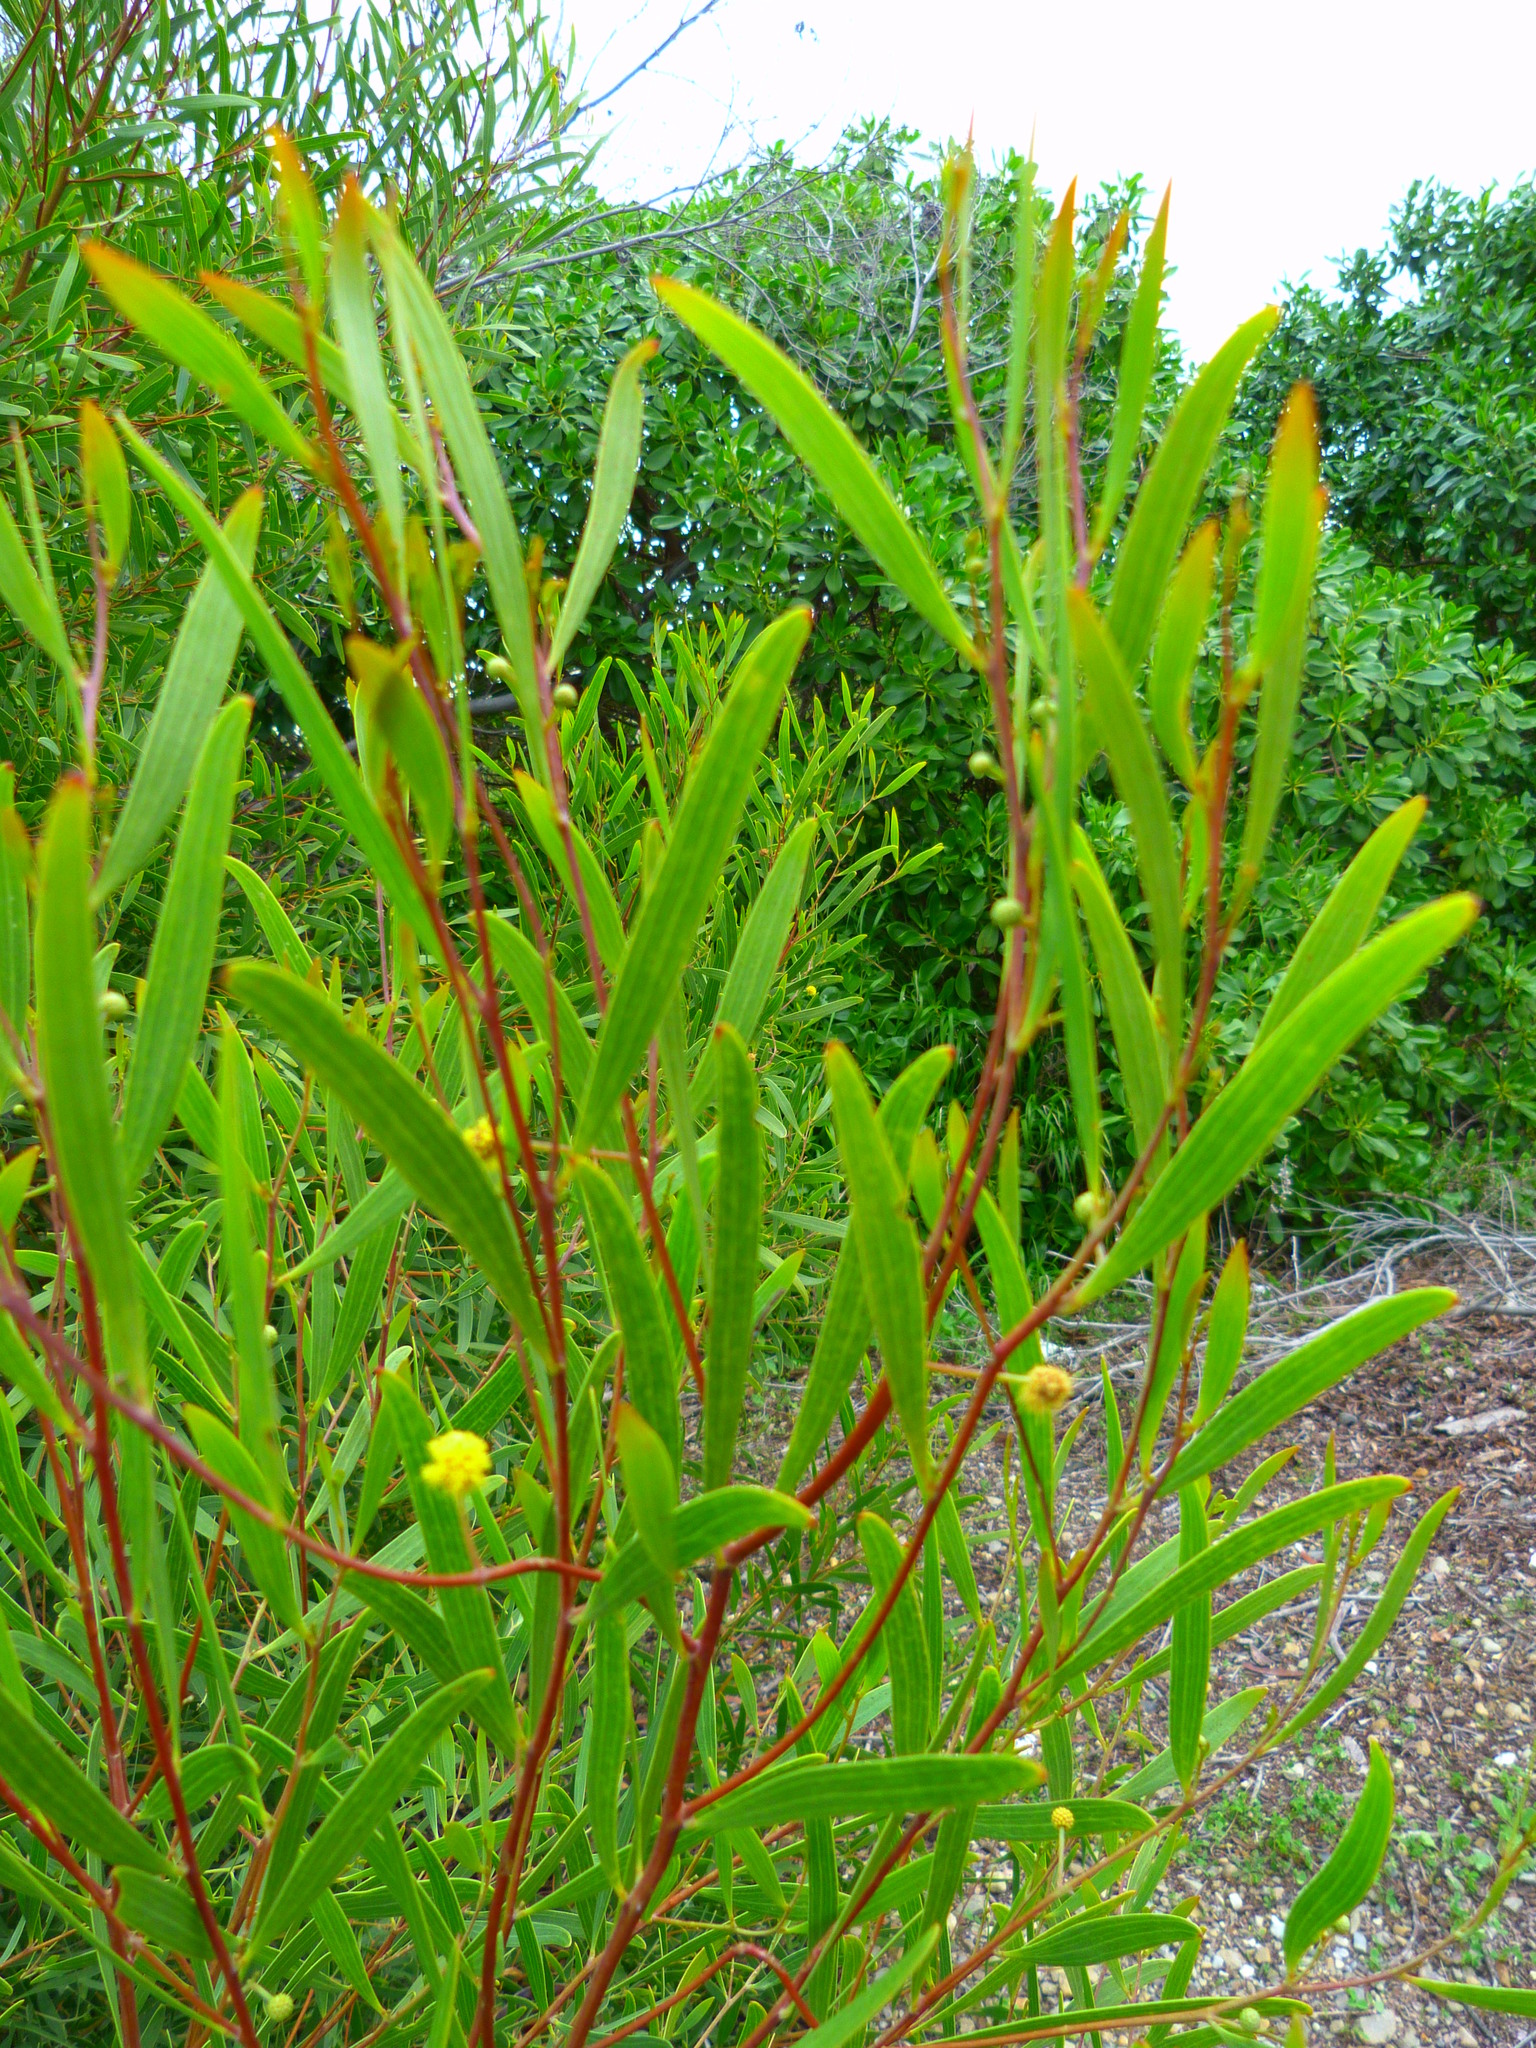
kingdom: Plantae
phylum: Tracheophyta
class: Magnoliopsida
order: Fabales
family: Fabaceae
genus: Acacia
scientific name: Acacia cyclops
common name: Coastal wattle
